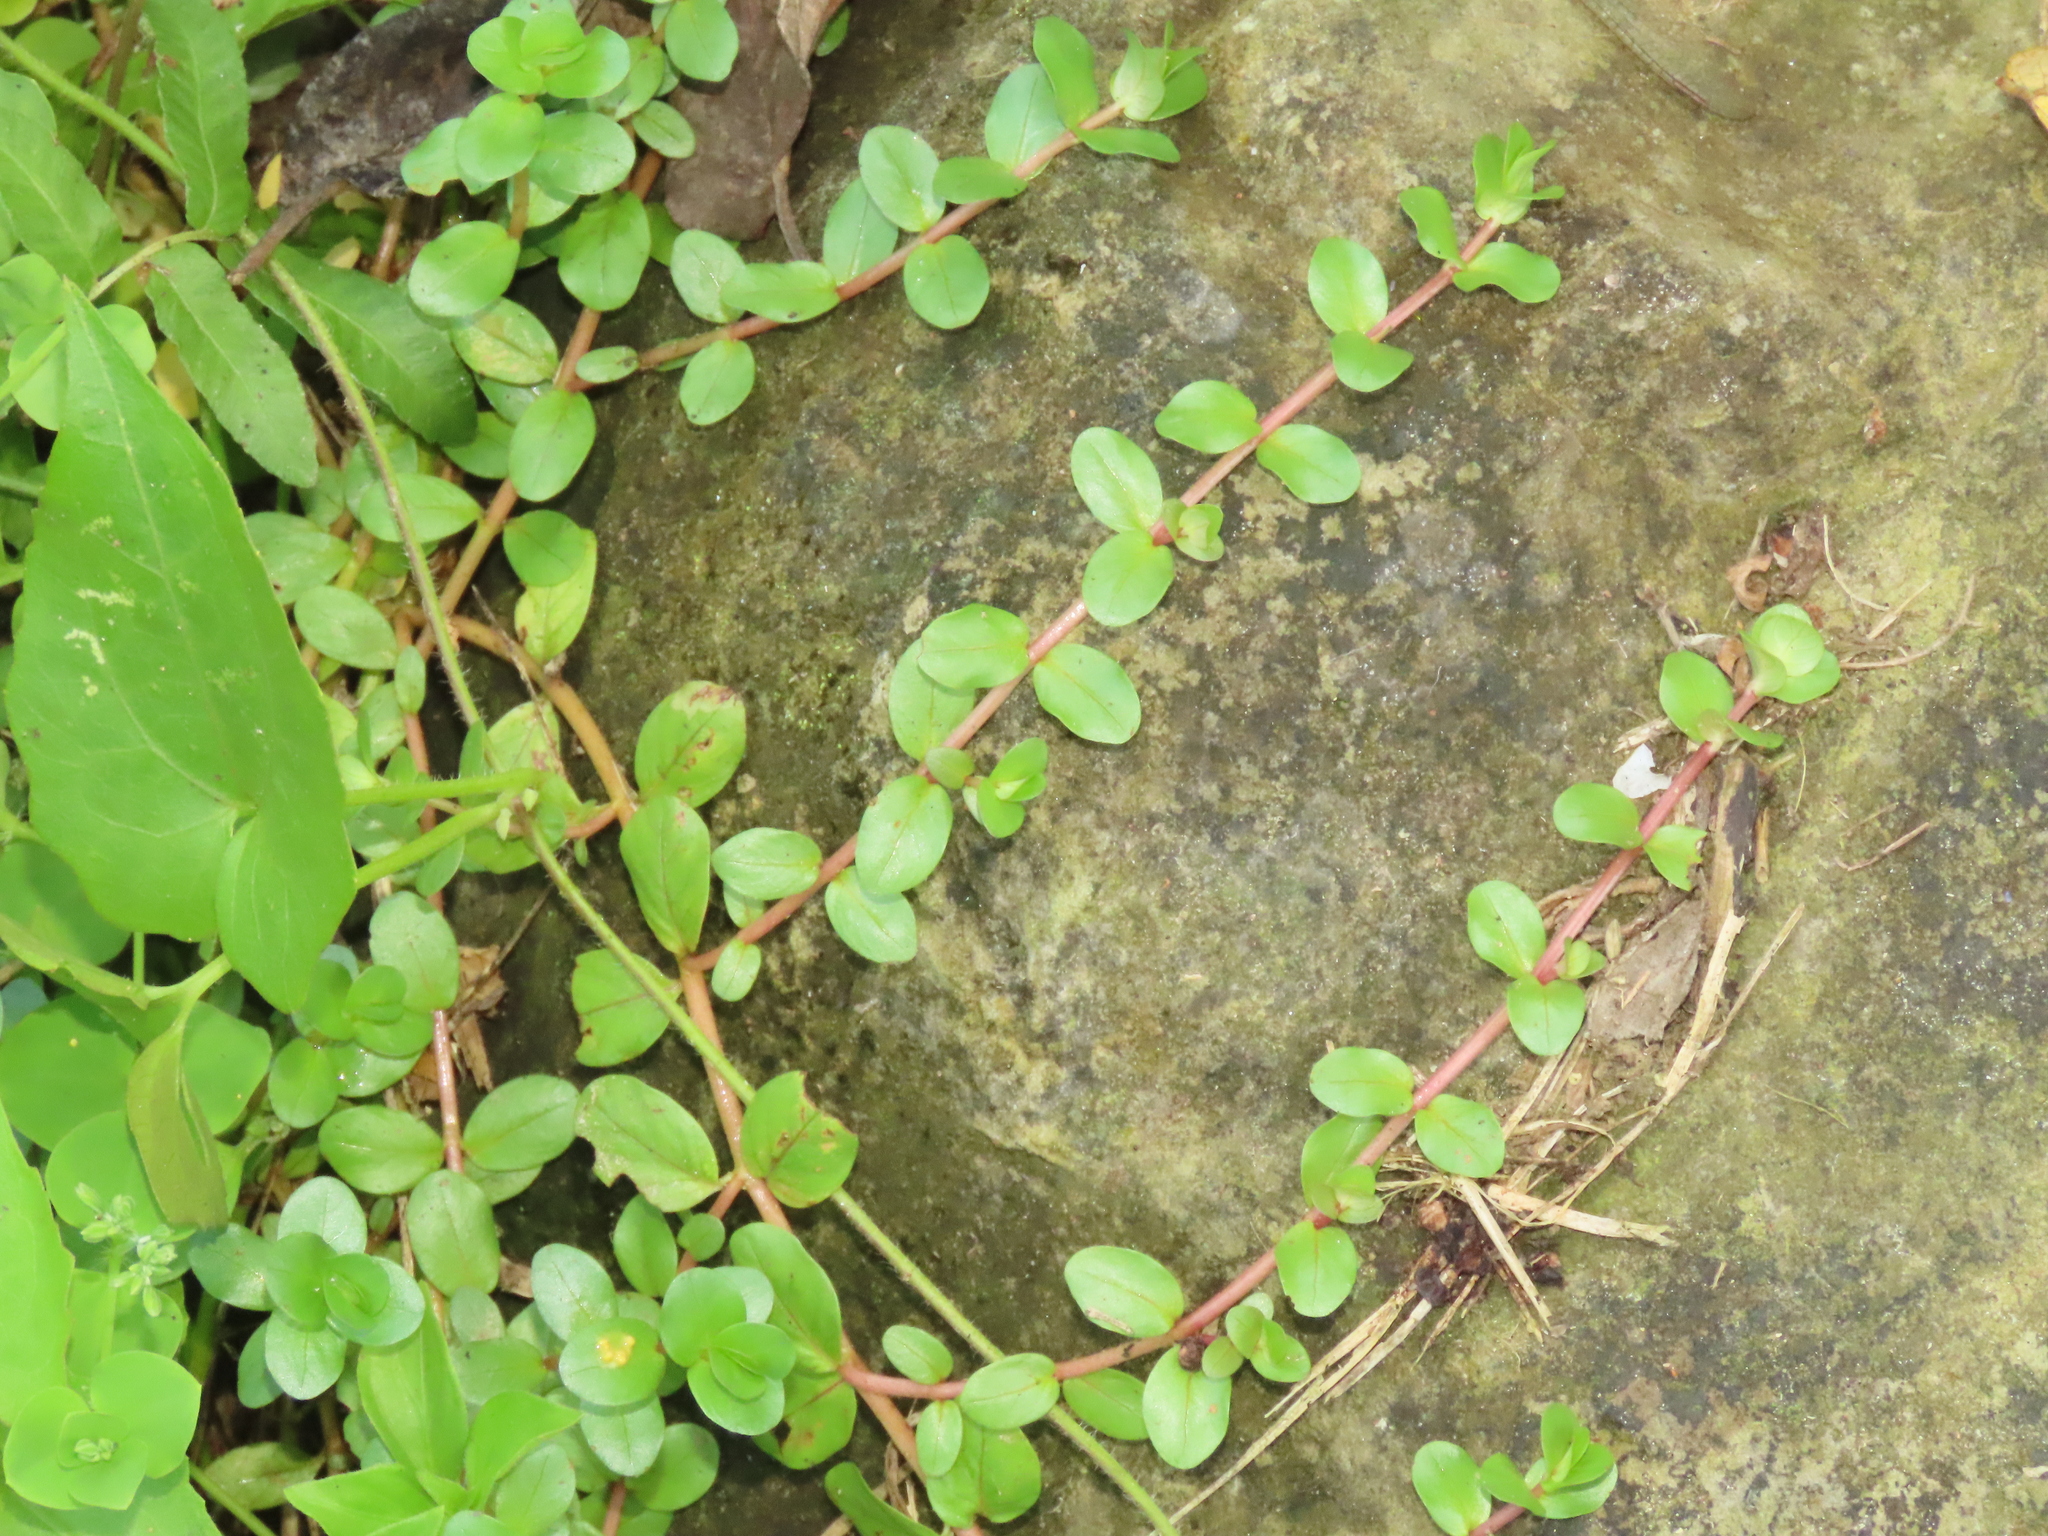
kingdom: Plantae
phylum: Tracheophyta
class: Magnoliopsida
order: Myrtales
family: Lythraceae
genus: Rotala
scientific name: Rotala rotundifolia
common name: Roundleaf toothcup
